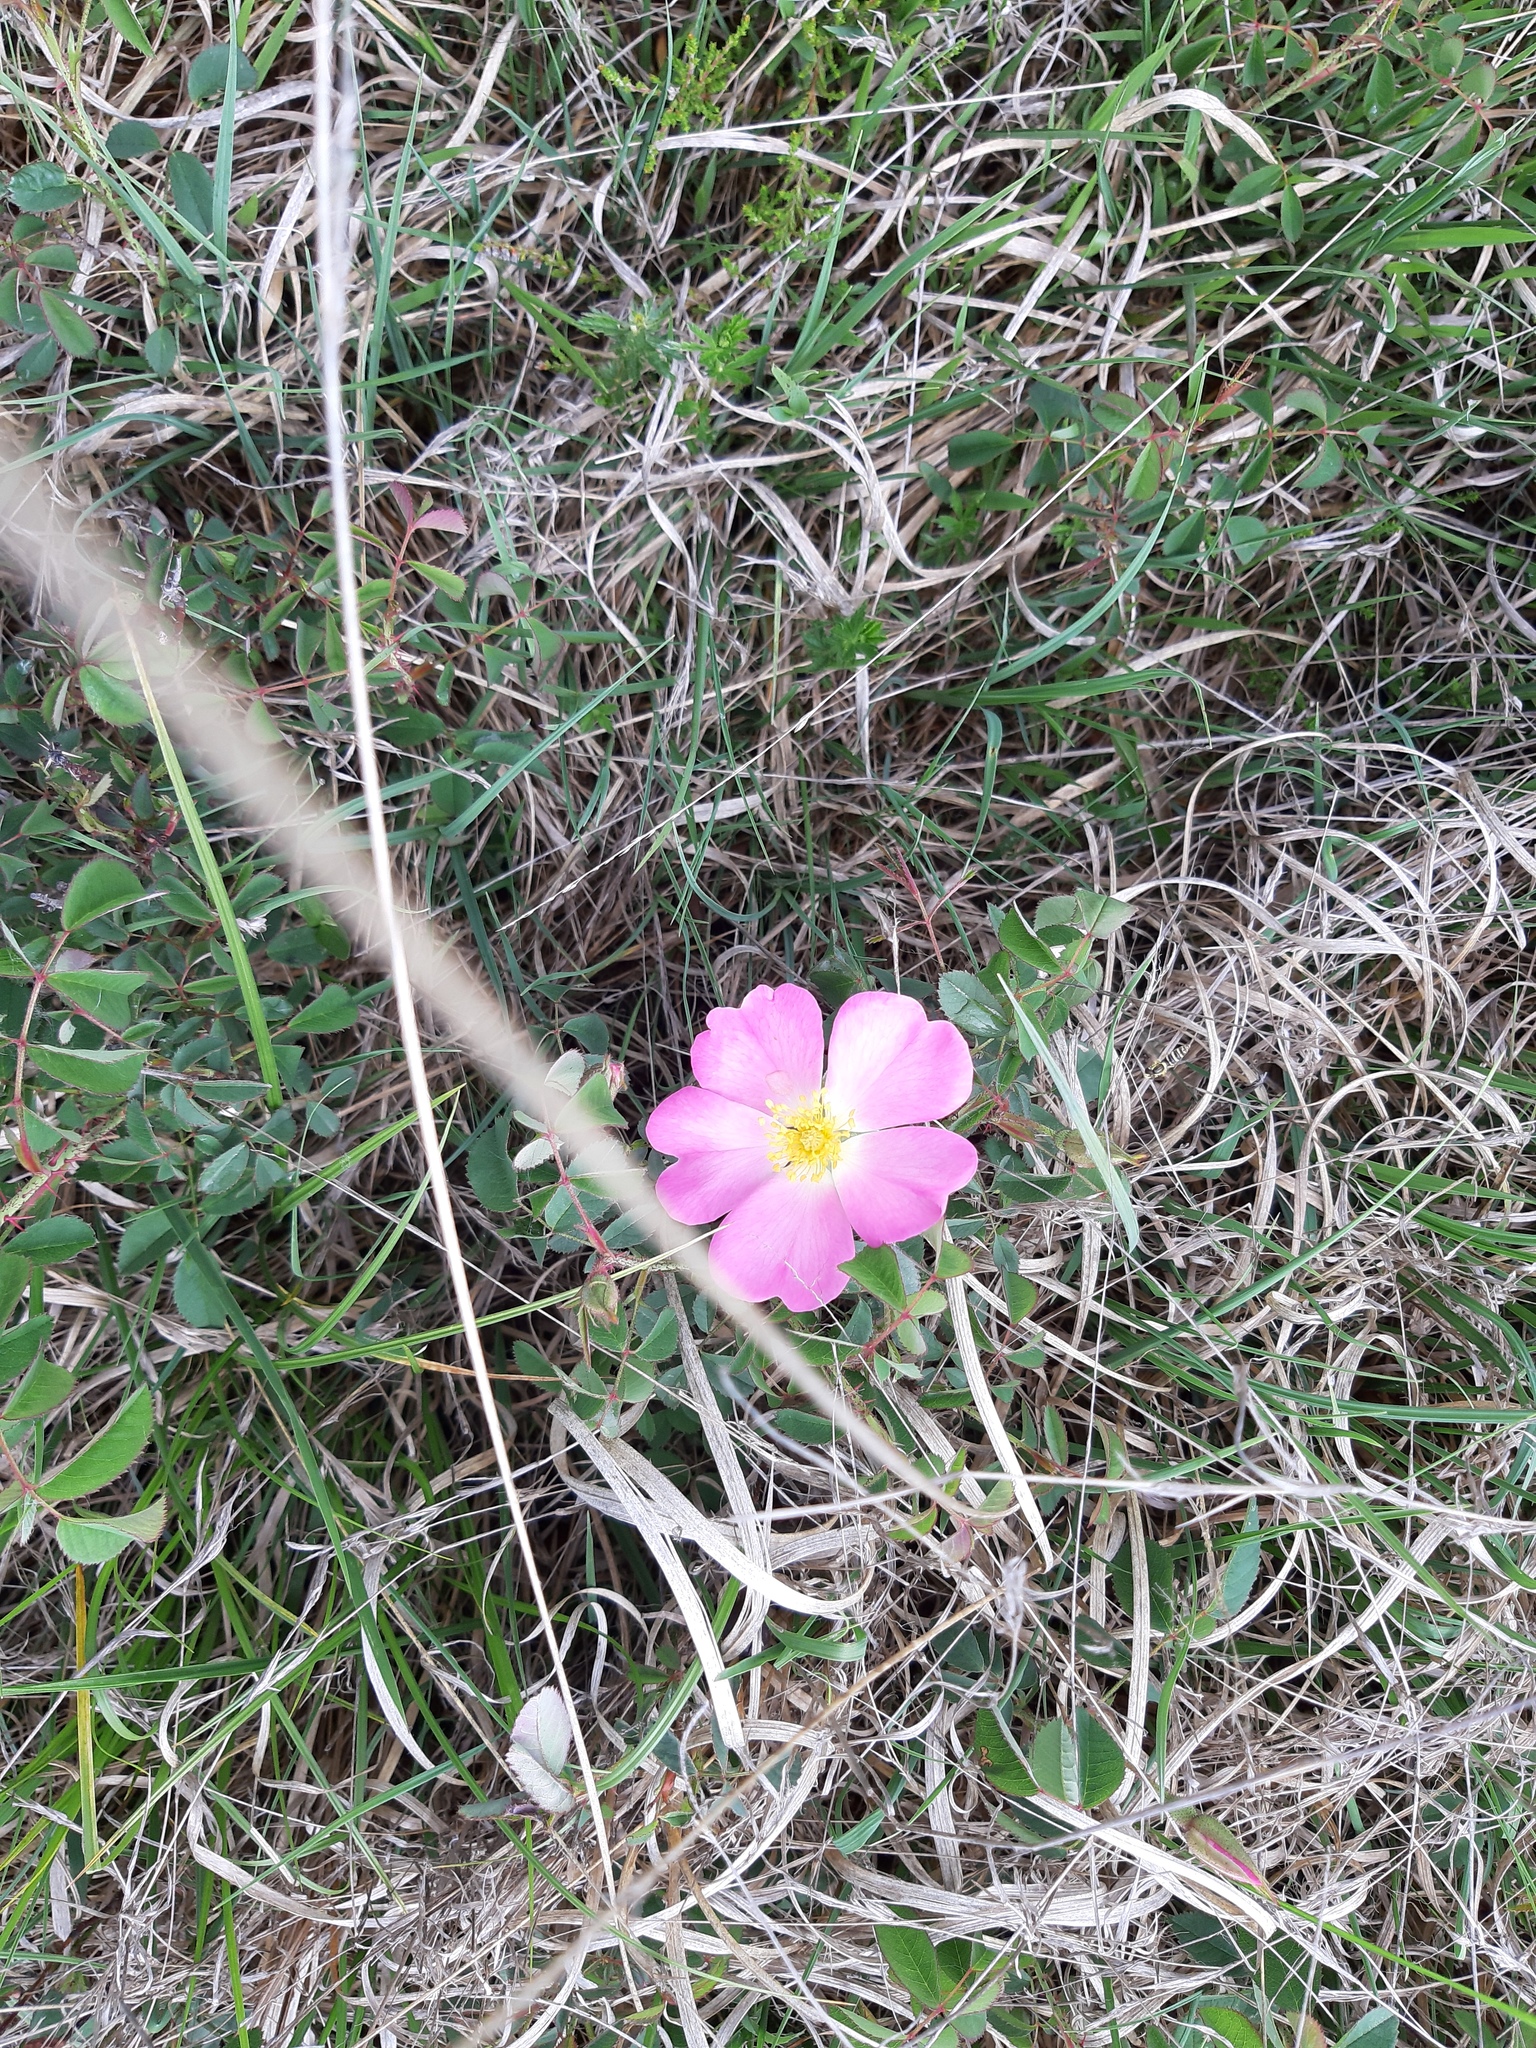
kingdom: Plantae
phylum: Tracheophyta
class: Magnoliopsida
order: Rosales
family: Rosaceae
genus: Rosa
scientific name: Rosa gallica
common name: French rose
